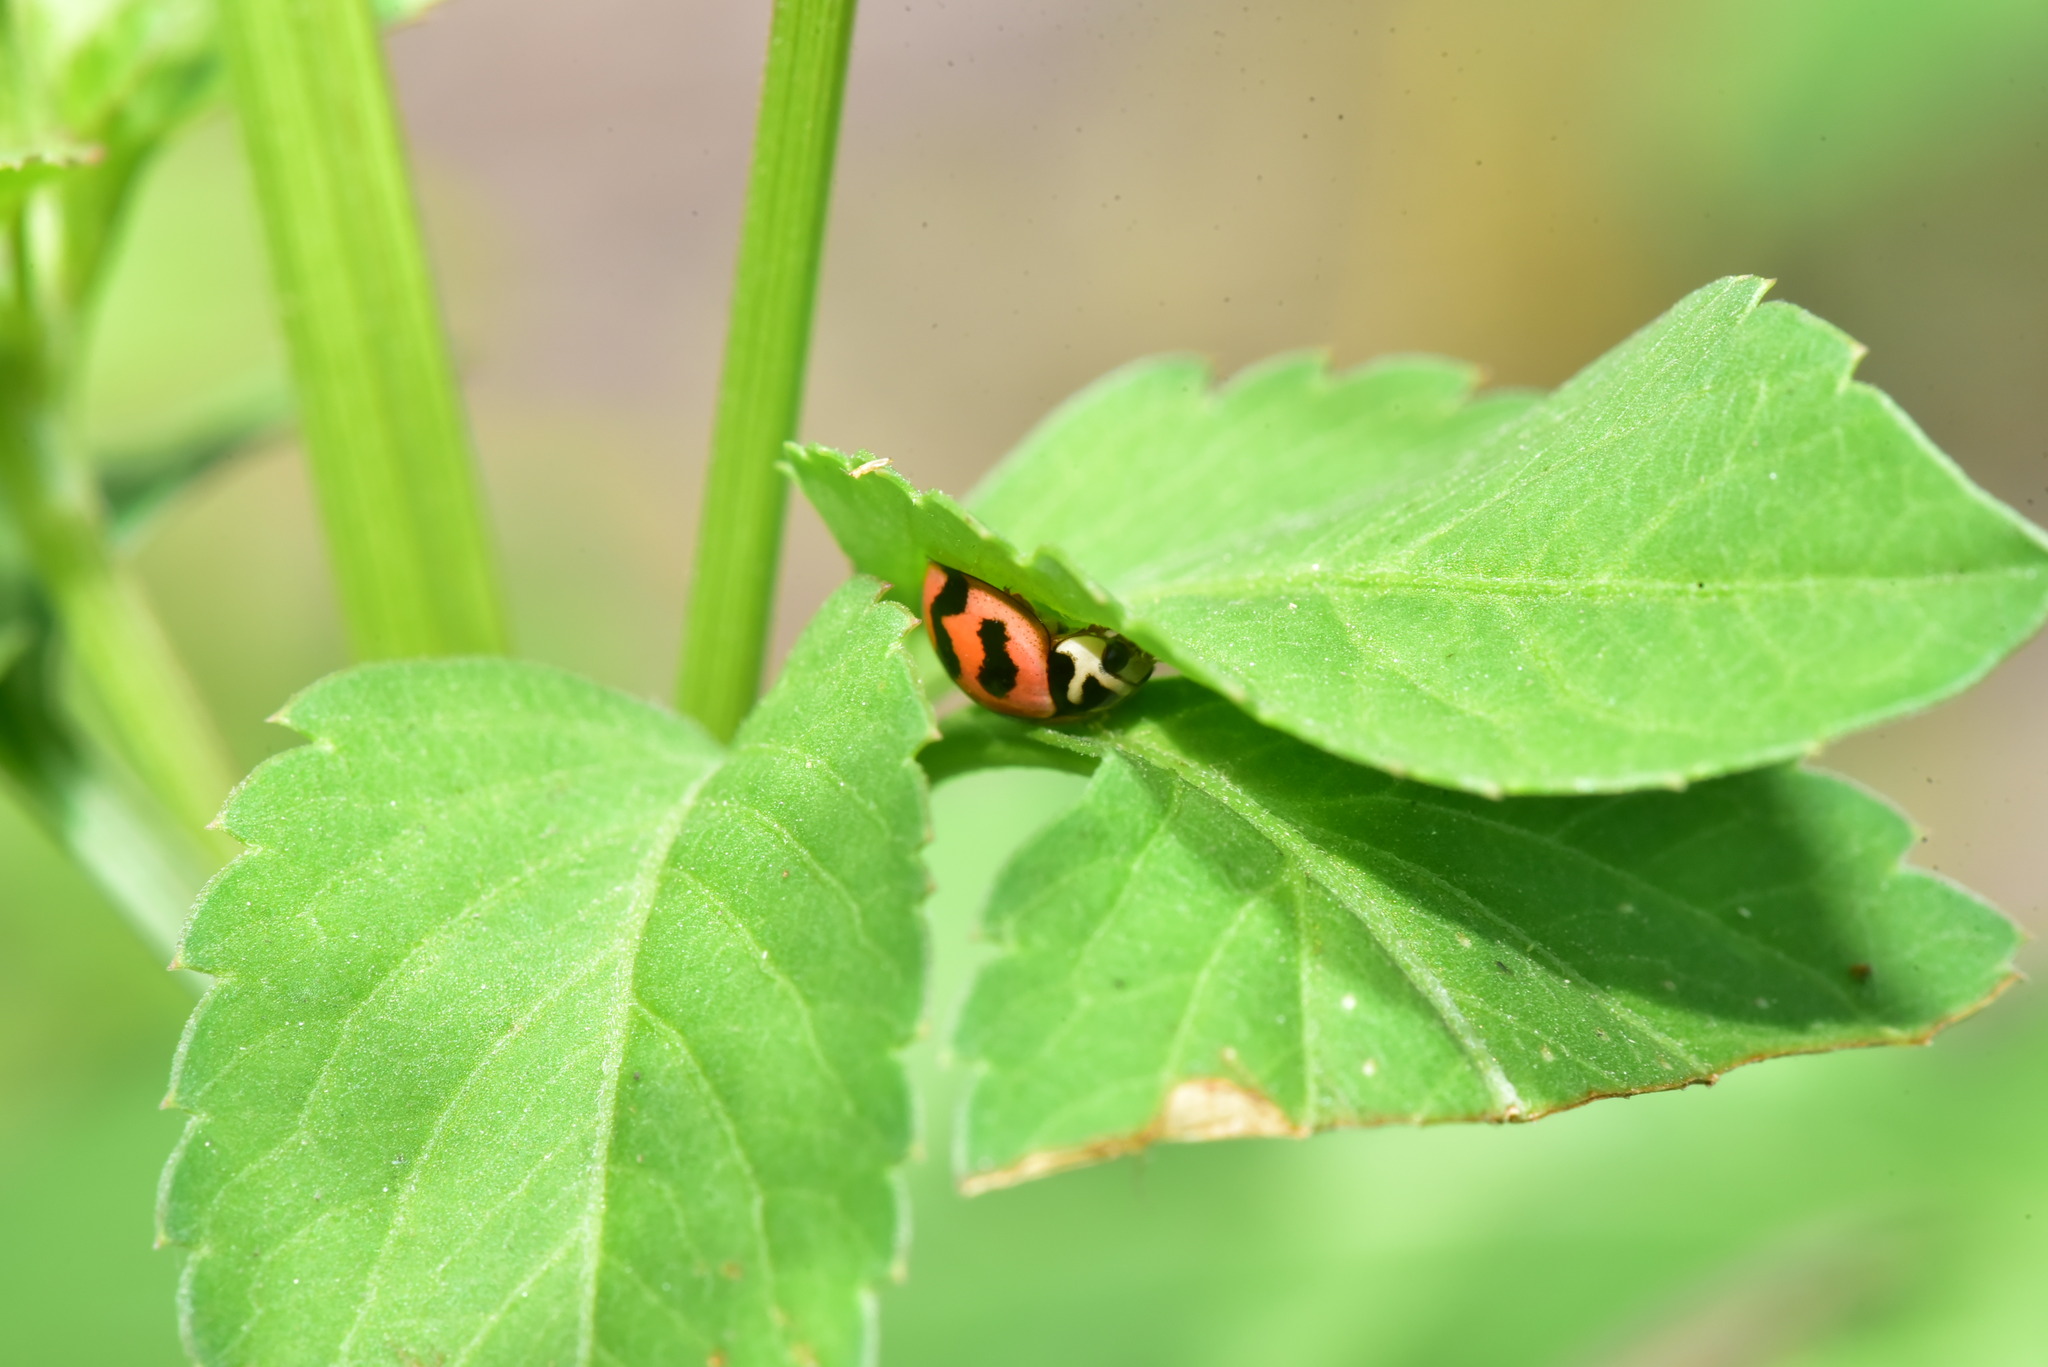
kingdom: Animalia
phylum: Arthropoda
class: Insecta
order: Coleoptera
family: Coccinellidae
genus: Cheilomenes
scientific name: Cheilomenes sexmaculata
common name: Ladybird beetle
